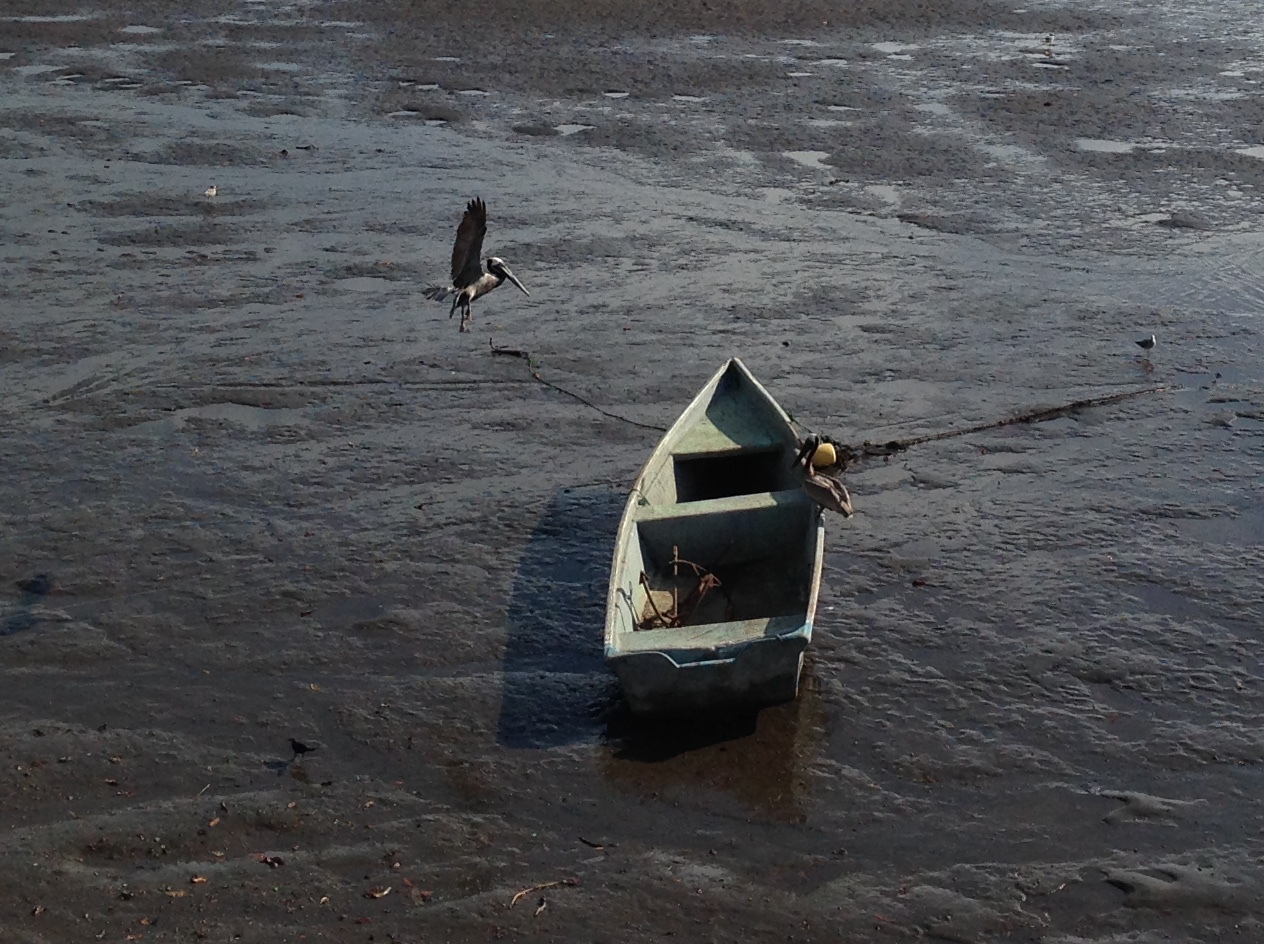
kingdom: Animalia
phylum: Chordata
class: Aves
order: Pelecaniformes
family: Pelecanidae
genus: Pelecanus
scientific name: Pelecanus occidentalis
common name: Brown pelican
